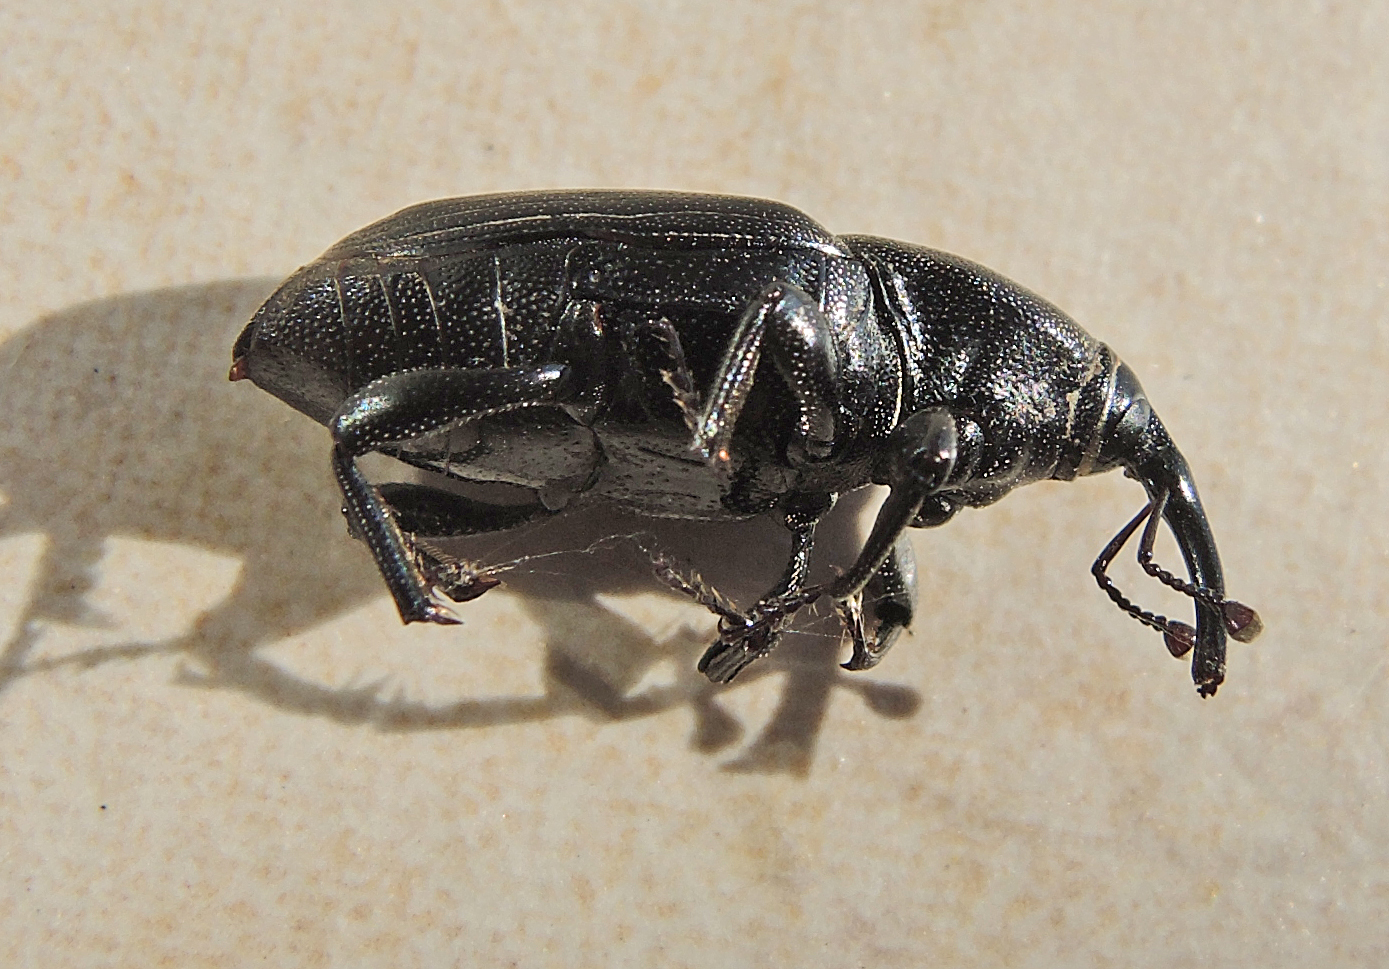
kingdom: Animalia
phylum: Arthropoda
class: Insecta
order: Coleoptera
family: Dryophthoridae
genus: Sphenophorus
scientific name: Sphenophorus abbreviatus
